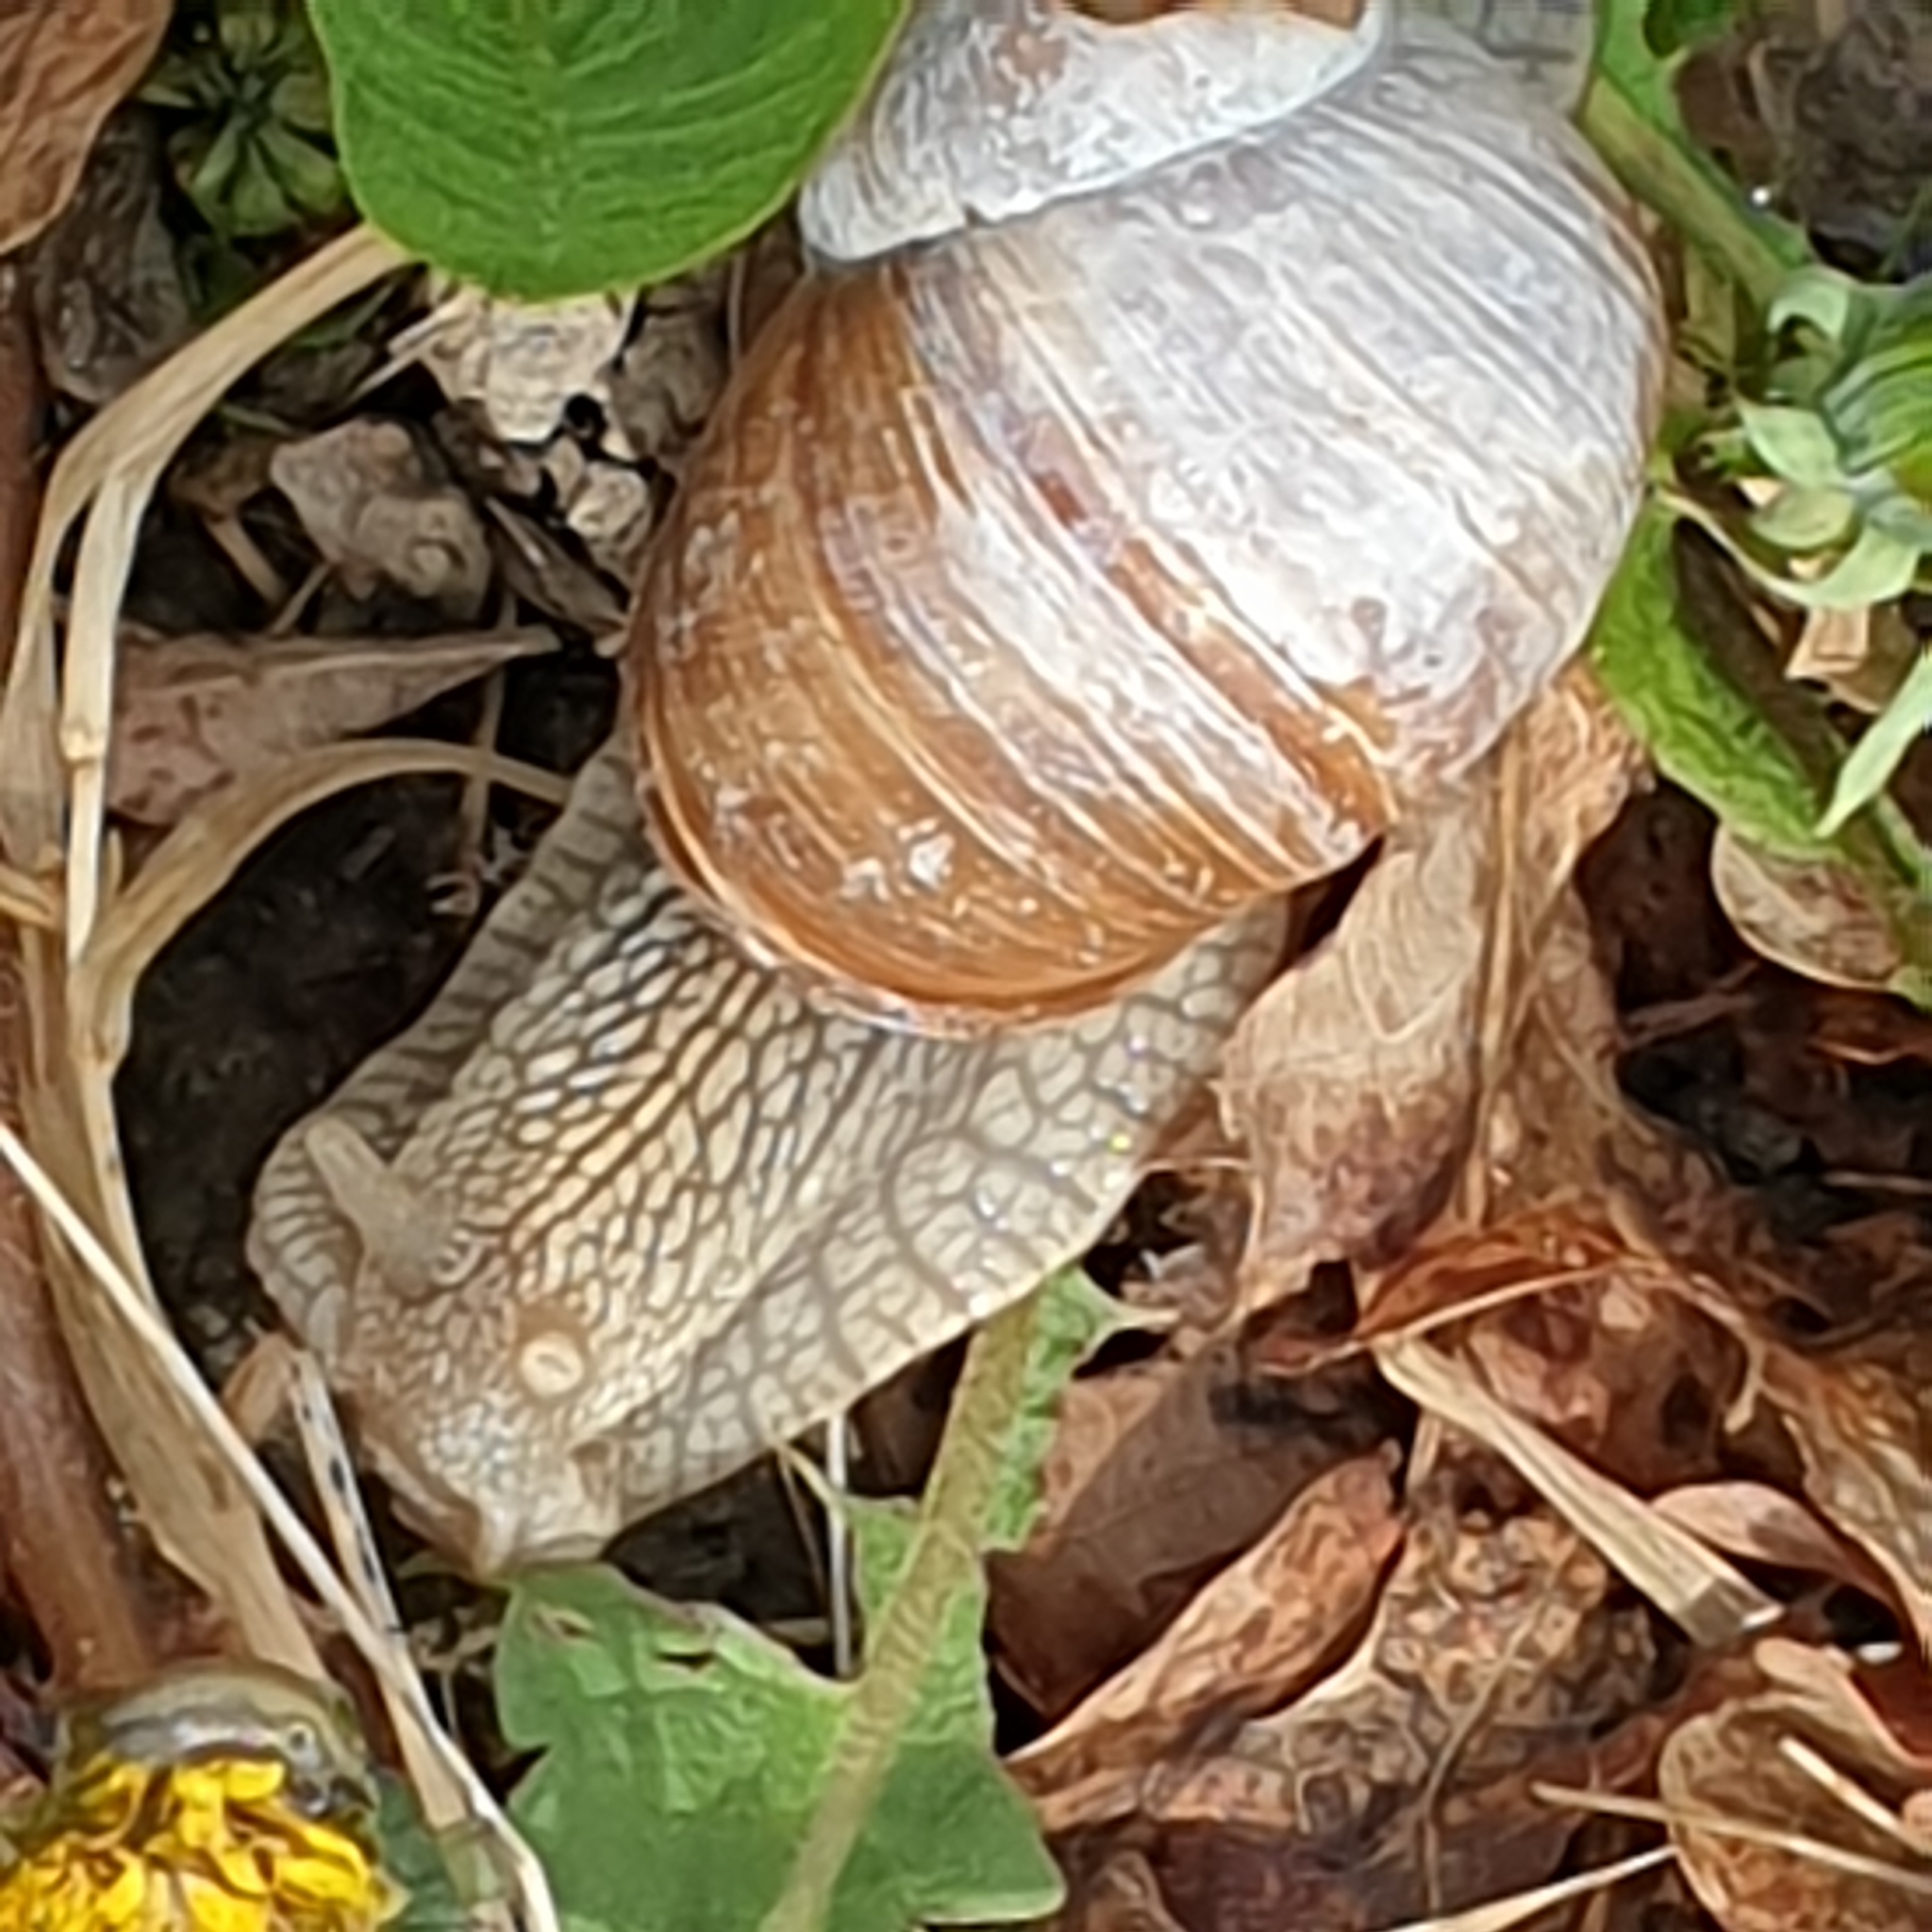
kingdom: Animalia
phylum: Mollusca
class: Gastropoda
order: Stylommatophora
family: Helicidae
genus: Helix
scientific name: Helix pomatia
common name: Roman snail
